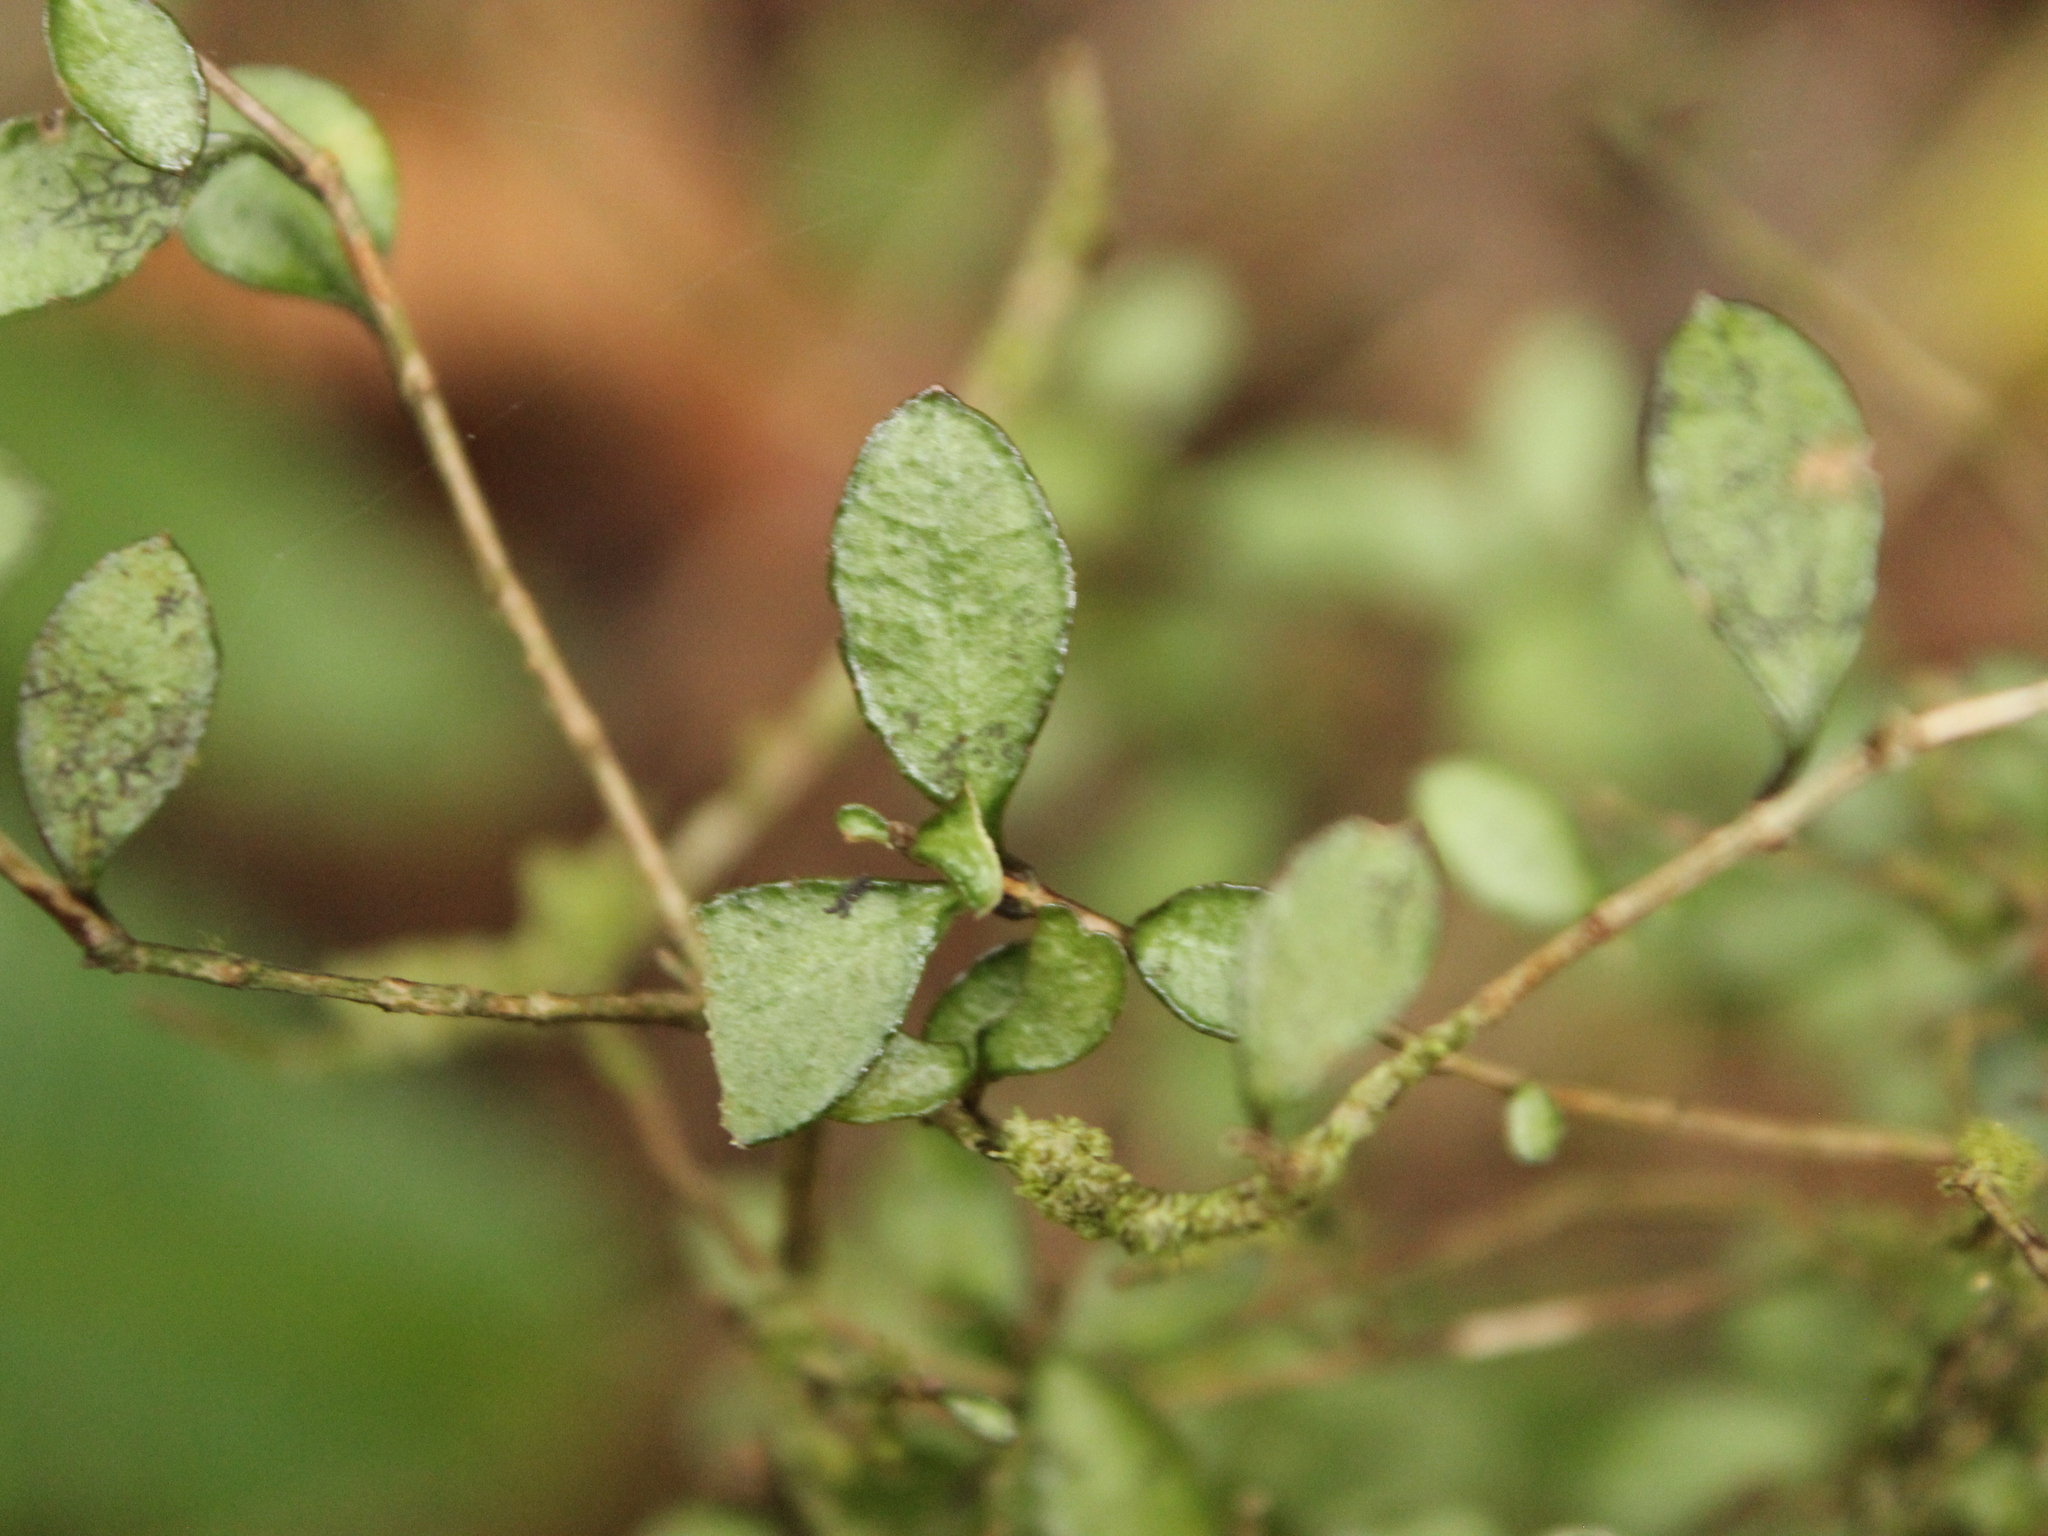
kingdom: Plantae
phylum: Tracheophyta
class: Magnoliopsida
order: Myrtales
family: Myrtaceae
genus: Neomyrtus
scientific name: Neomyrtus pedunculata
